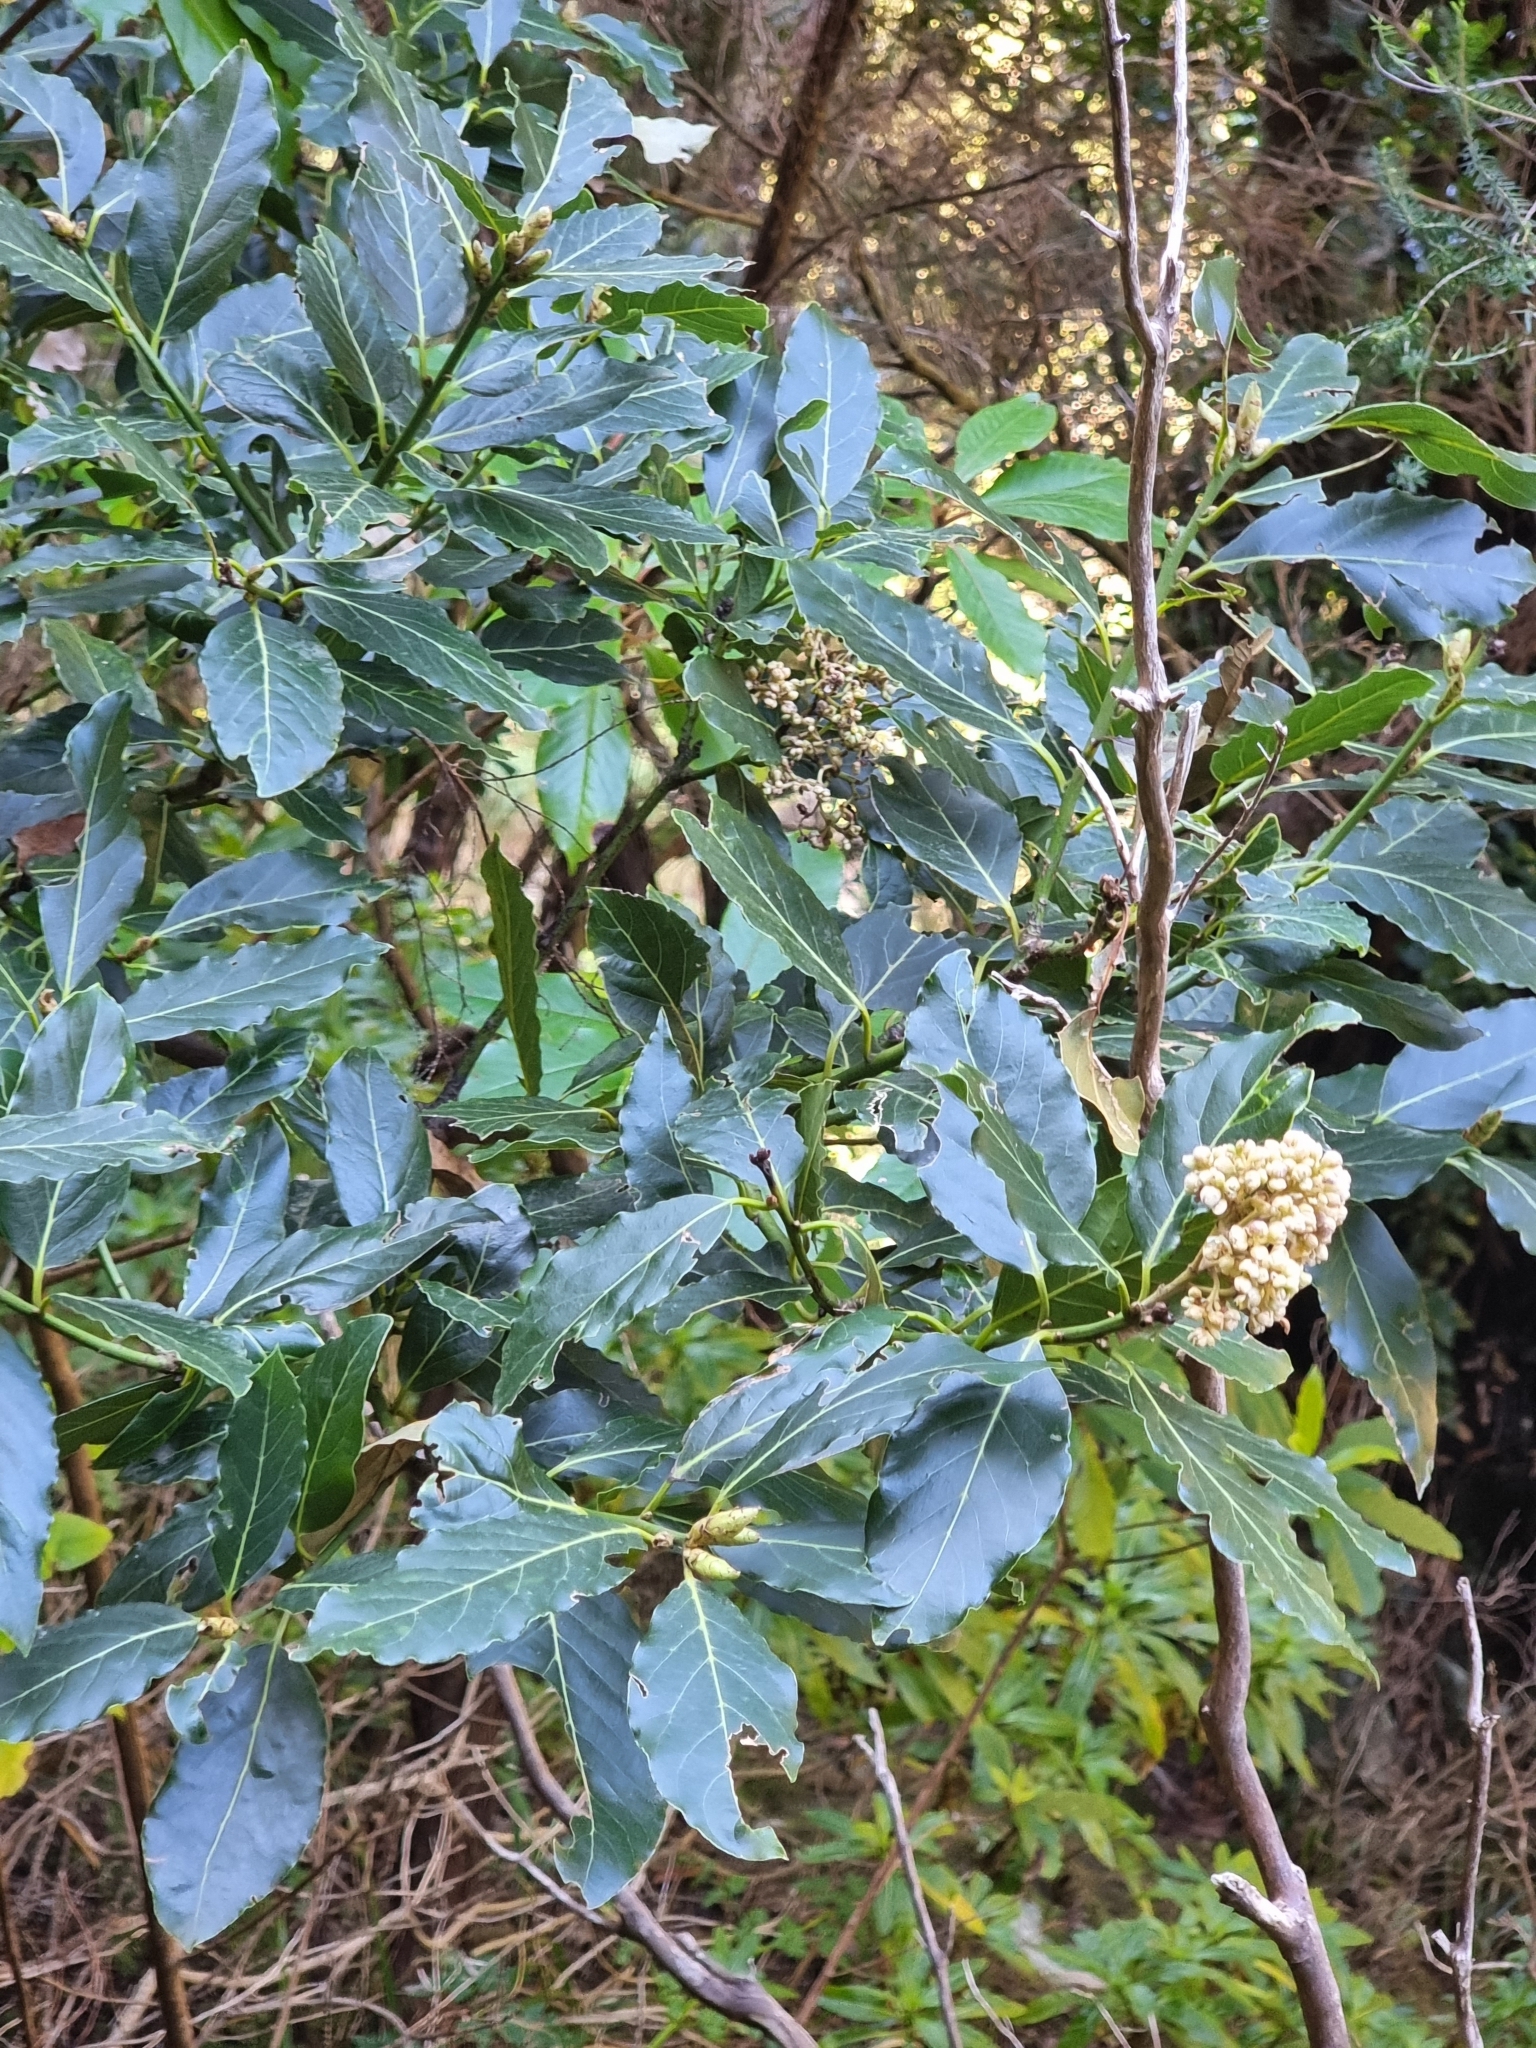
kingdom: Plantae
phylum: Tracheophyta
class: Magnoliopsida
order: Laurales
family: Lauraceae
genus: Laurus
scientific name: Laurus novocanariensis
